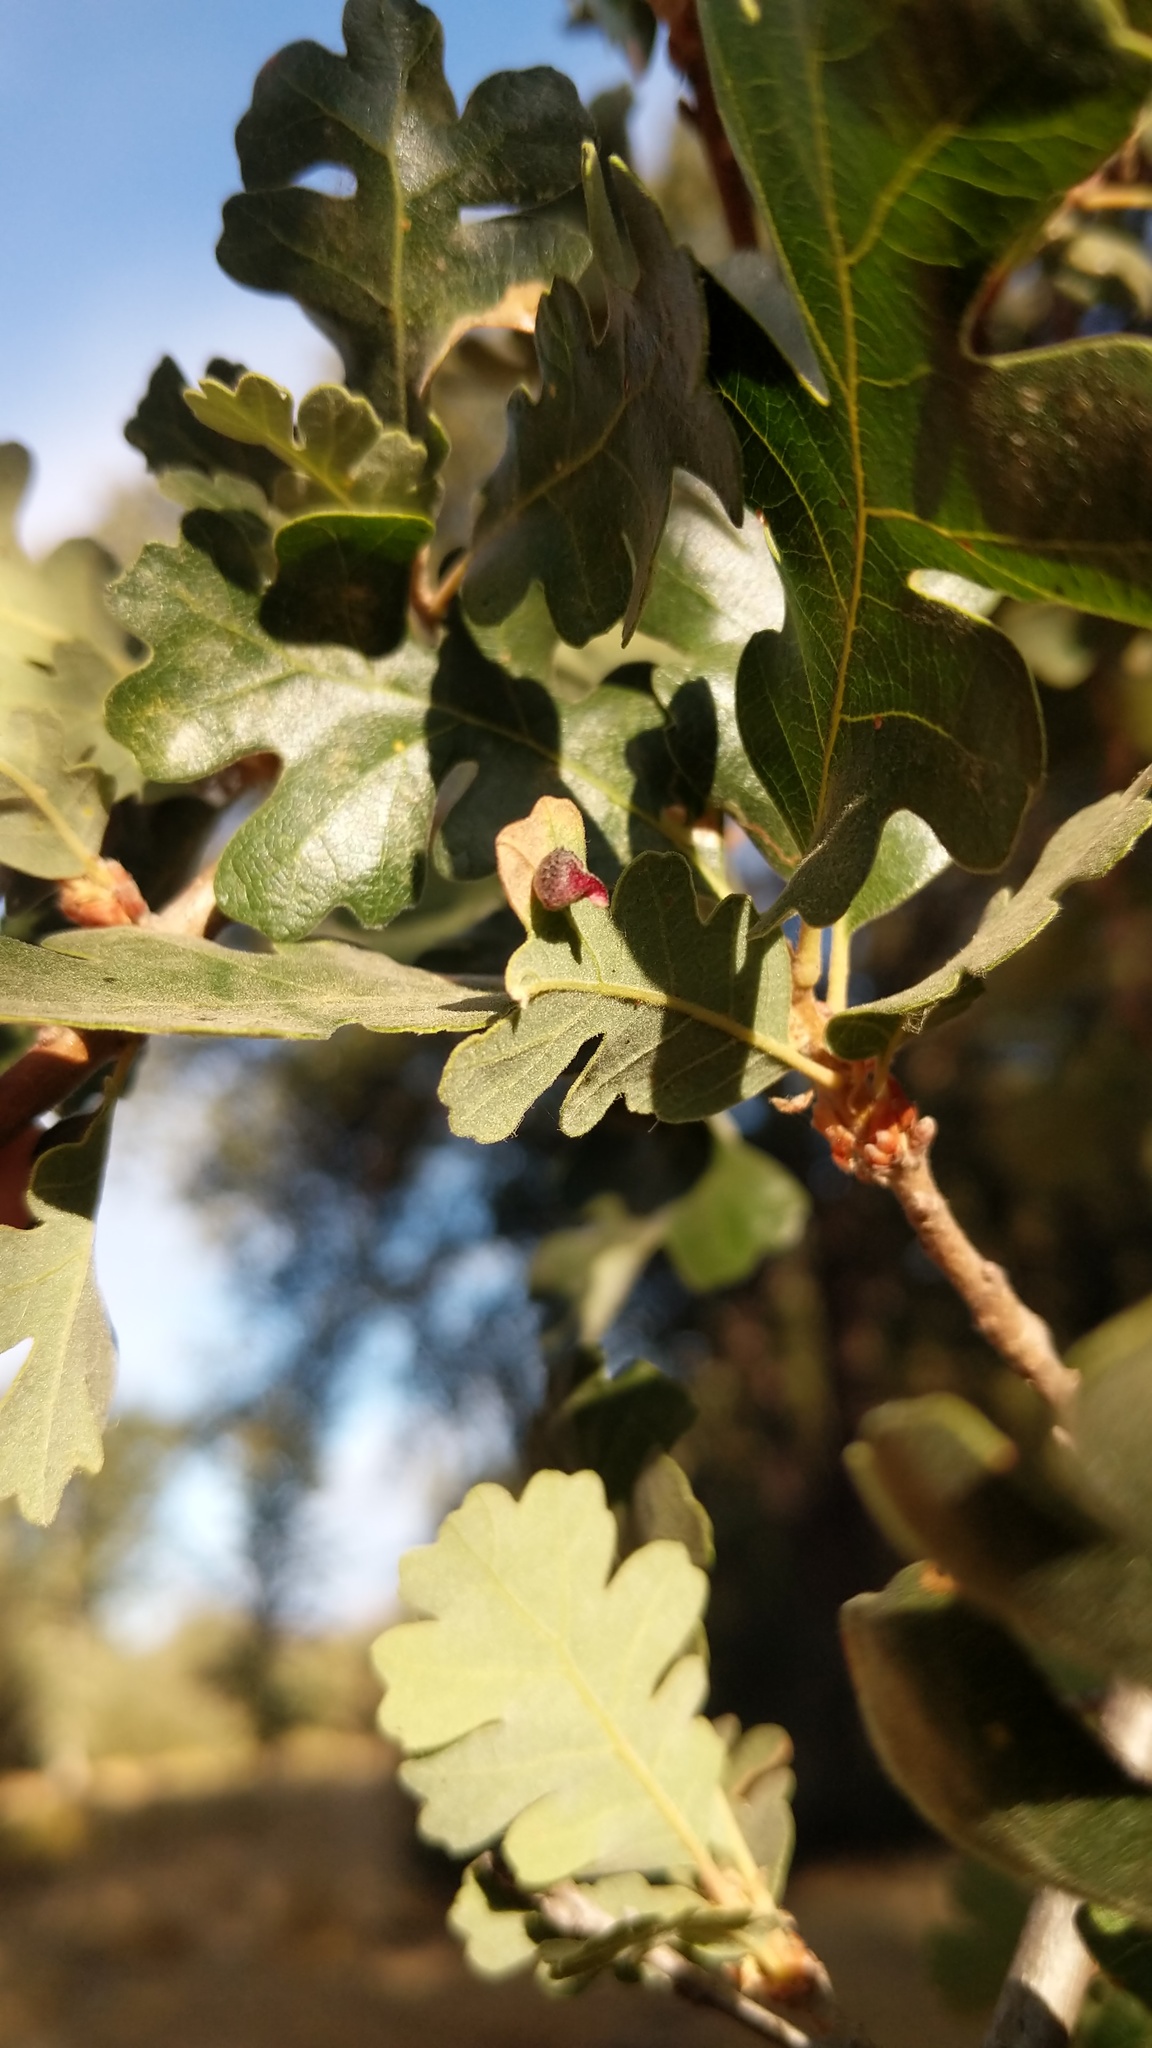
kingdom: Animalia
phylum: Arthropoda
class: Insecta
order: Hymenoptera
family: Cynipidae
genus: Andricus
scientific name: Andricus
